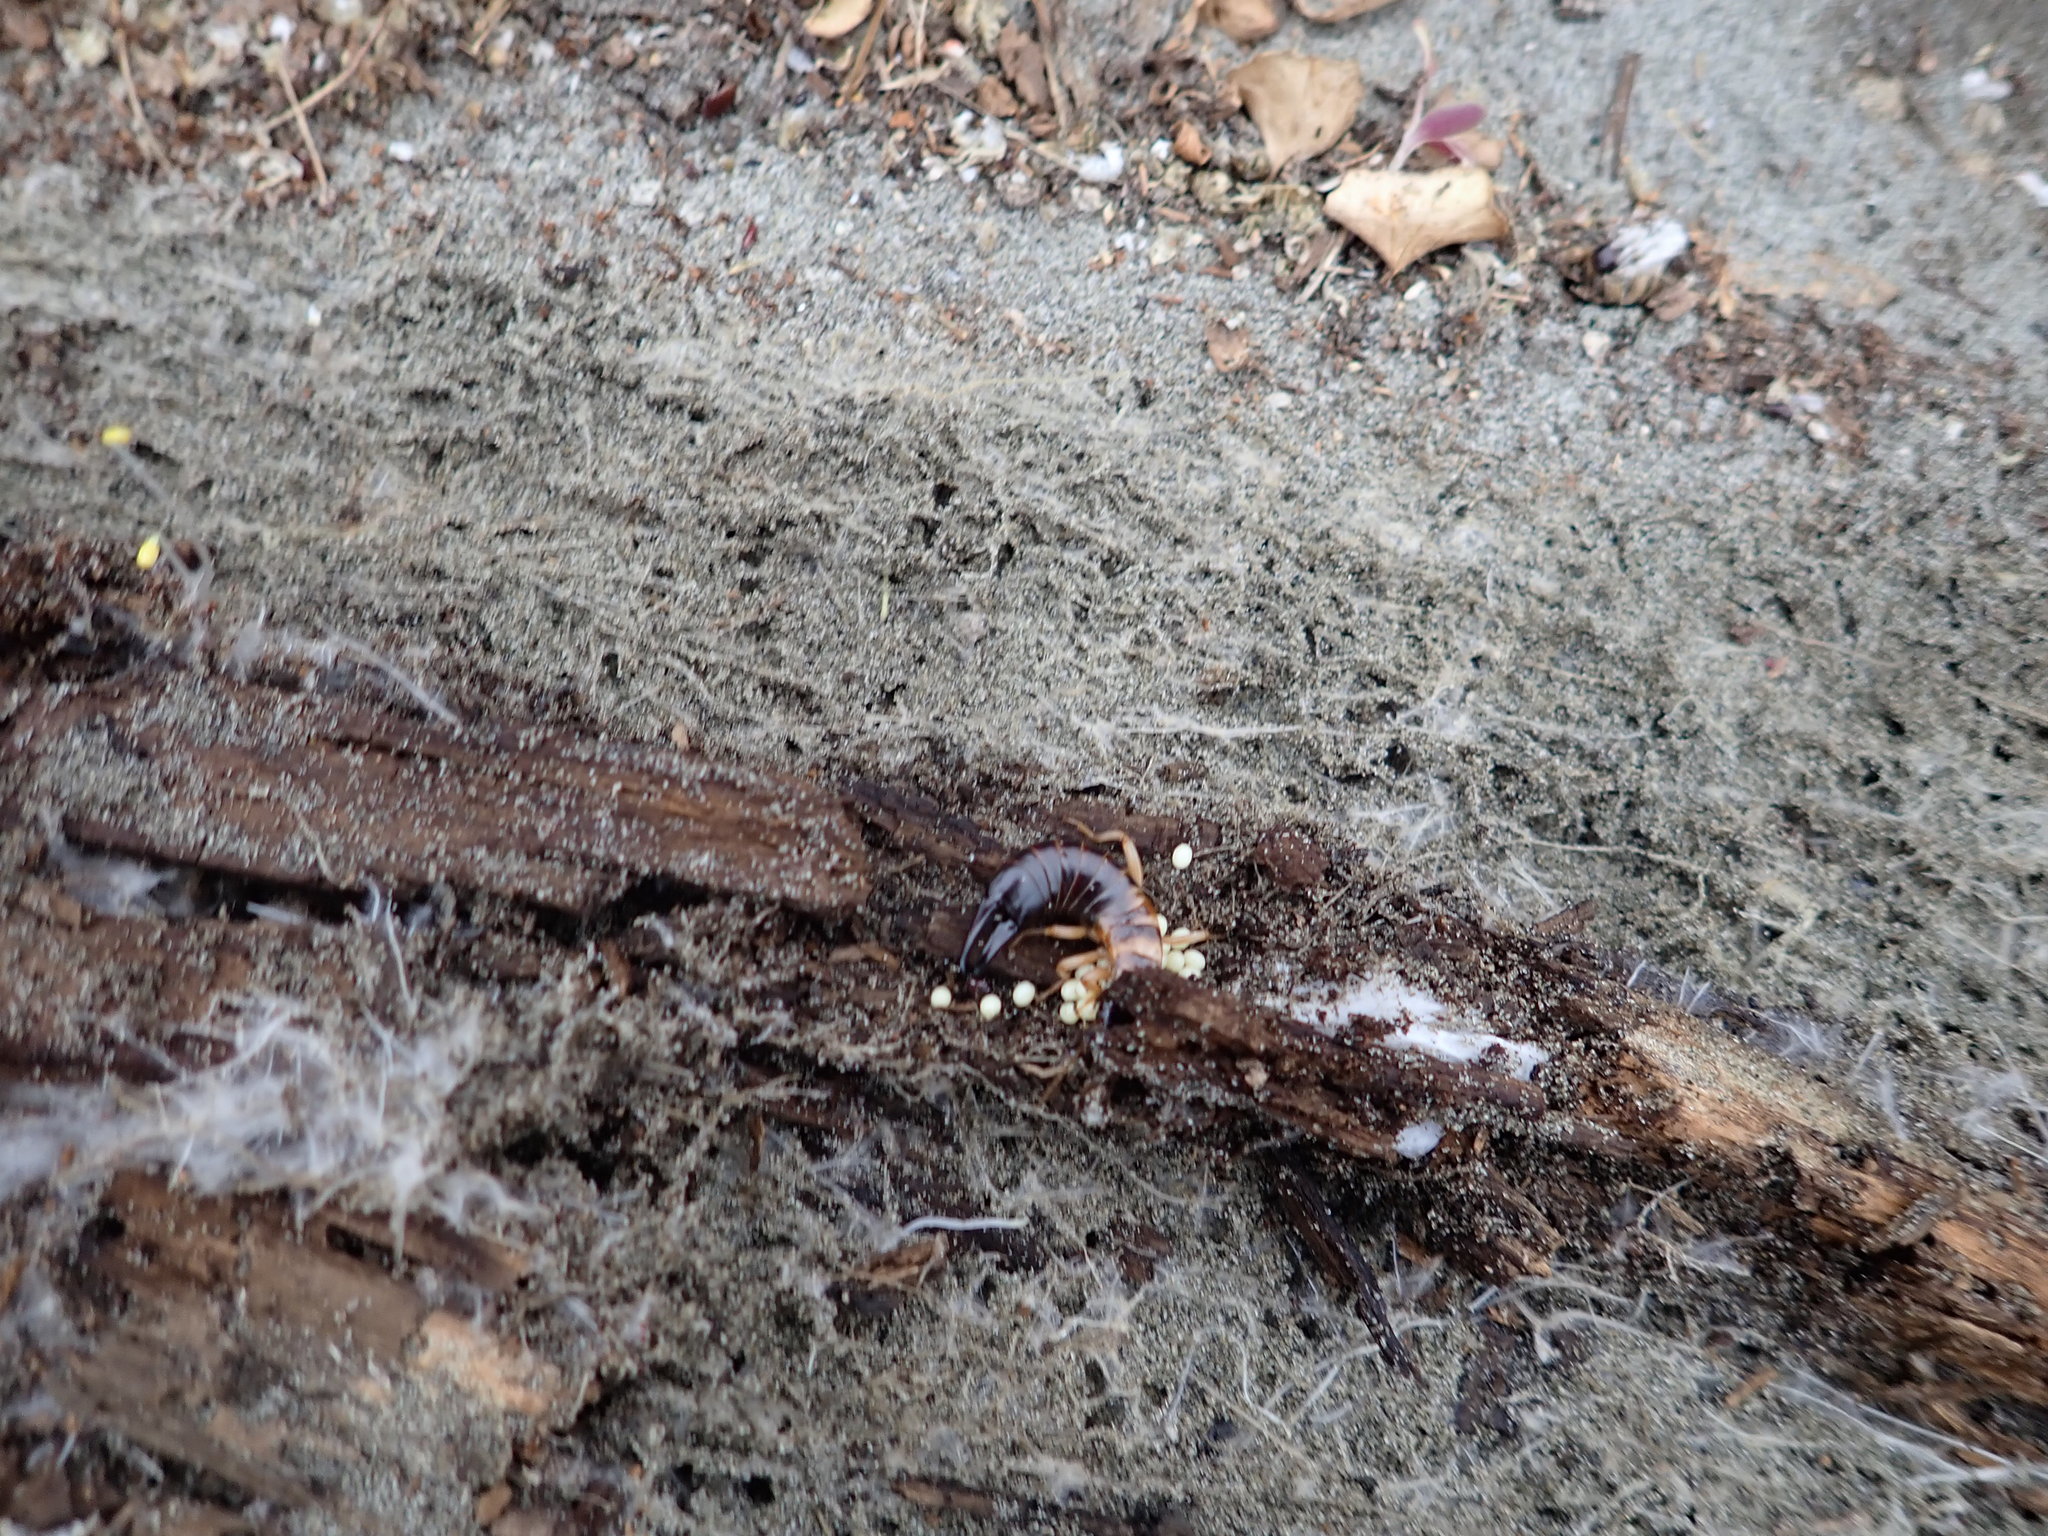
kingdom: Animalia
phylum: Arthropoda
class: Insecta
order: Dermaptera
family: Anisolabididae
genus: Anisolabis
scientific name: Anisolabis littorea
